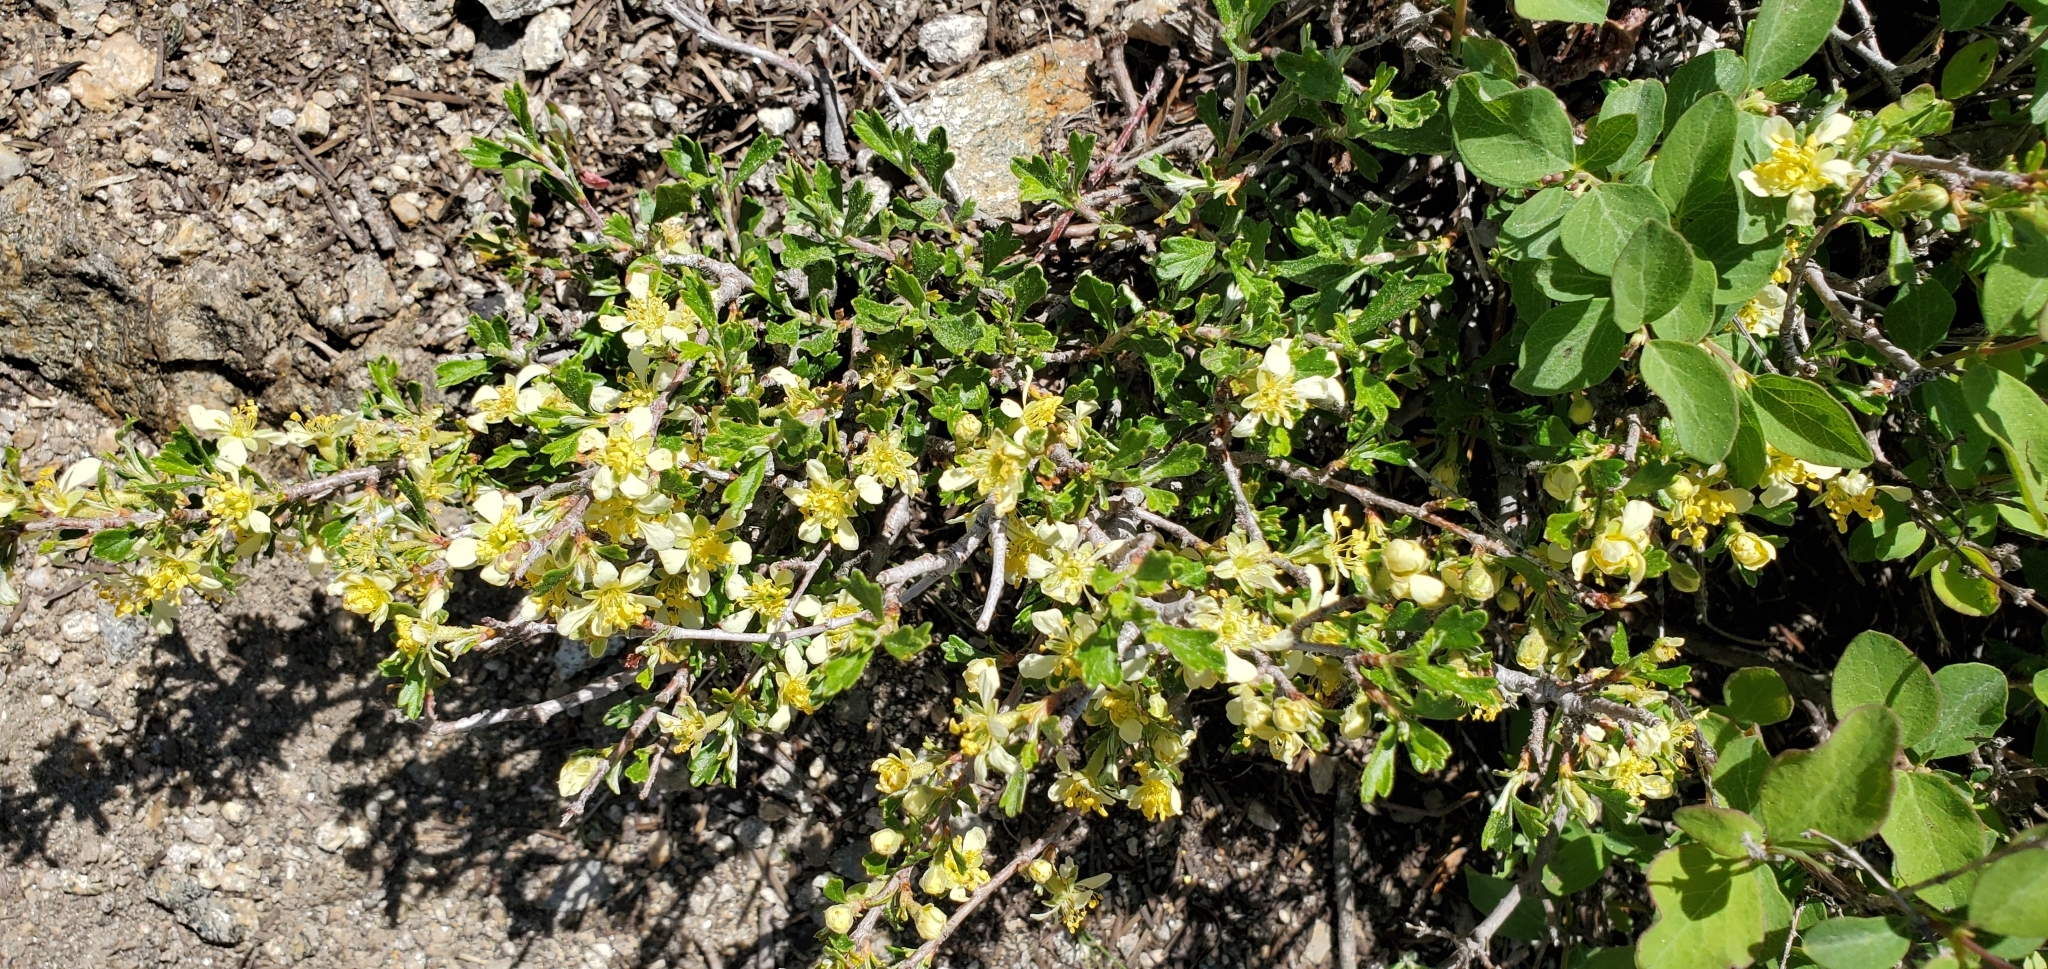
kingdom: Plantae
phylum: Tracheophyta
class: Magnoliopsida
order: Rosales
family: Rosaceae
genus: Purshia
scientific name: Purshia tridentata
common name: Antelope bitterbrush
